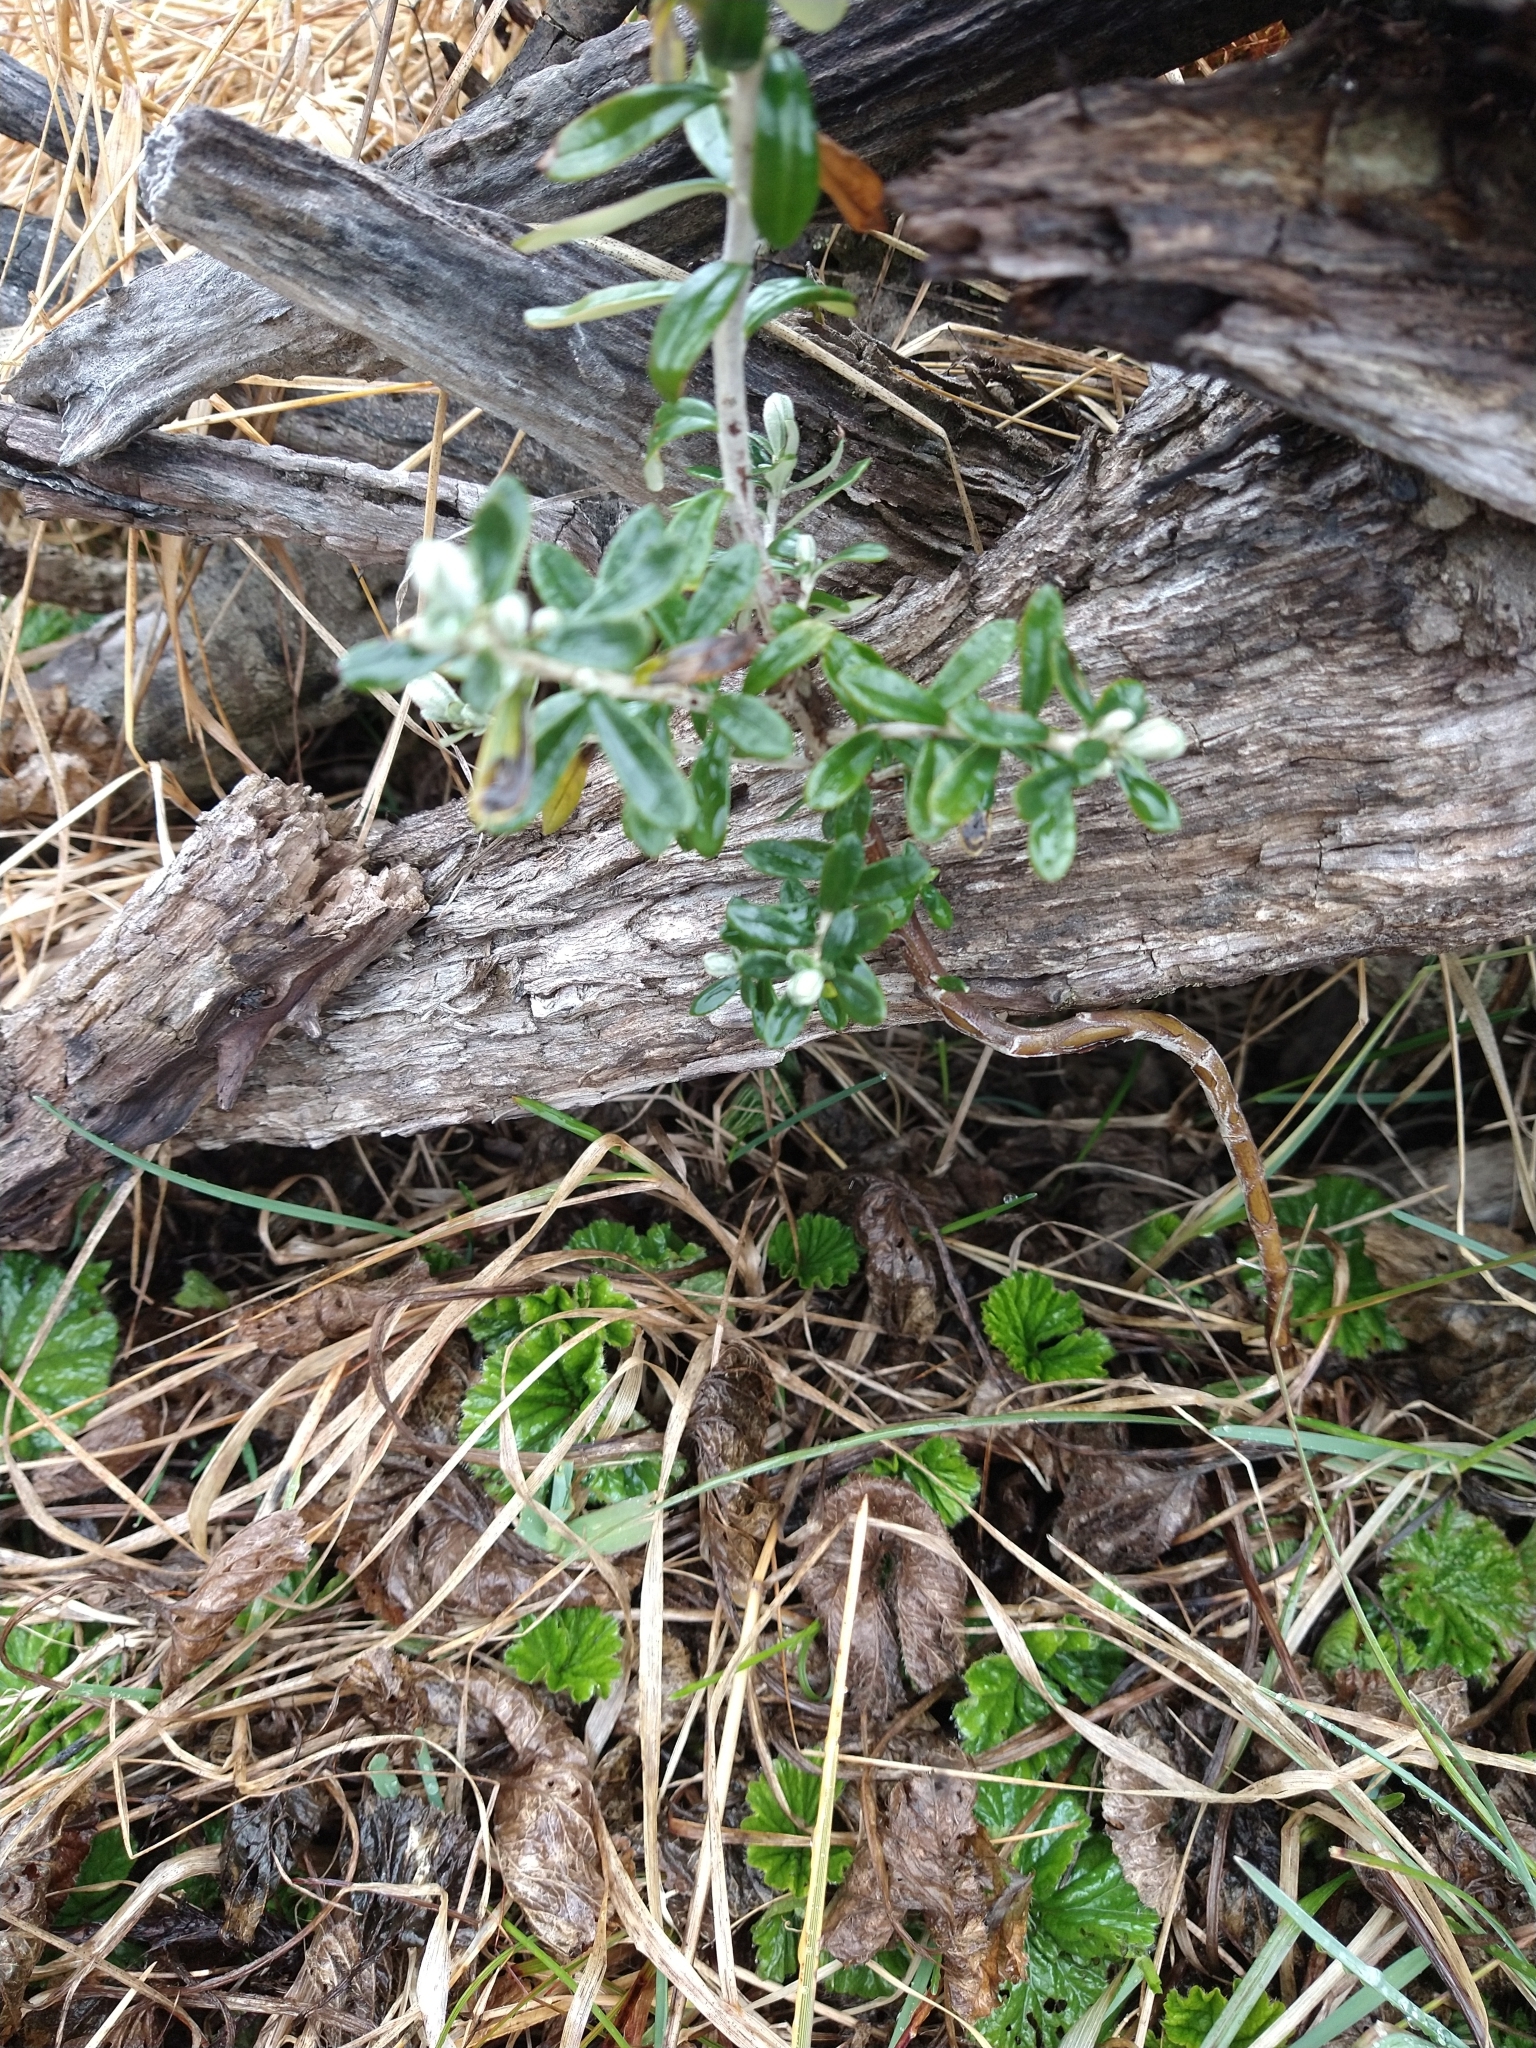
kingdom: Plantae
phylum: Tracheophyta
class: Magnoliopsida
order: Asterales
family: Asteraceae
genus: Chiliotrichum
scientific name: Chiliotrichum diffusum
